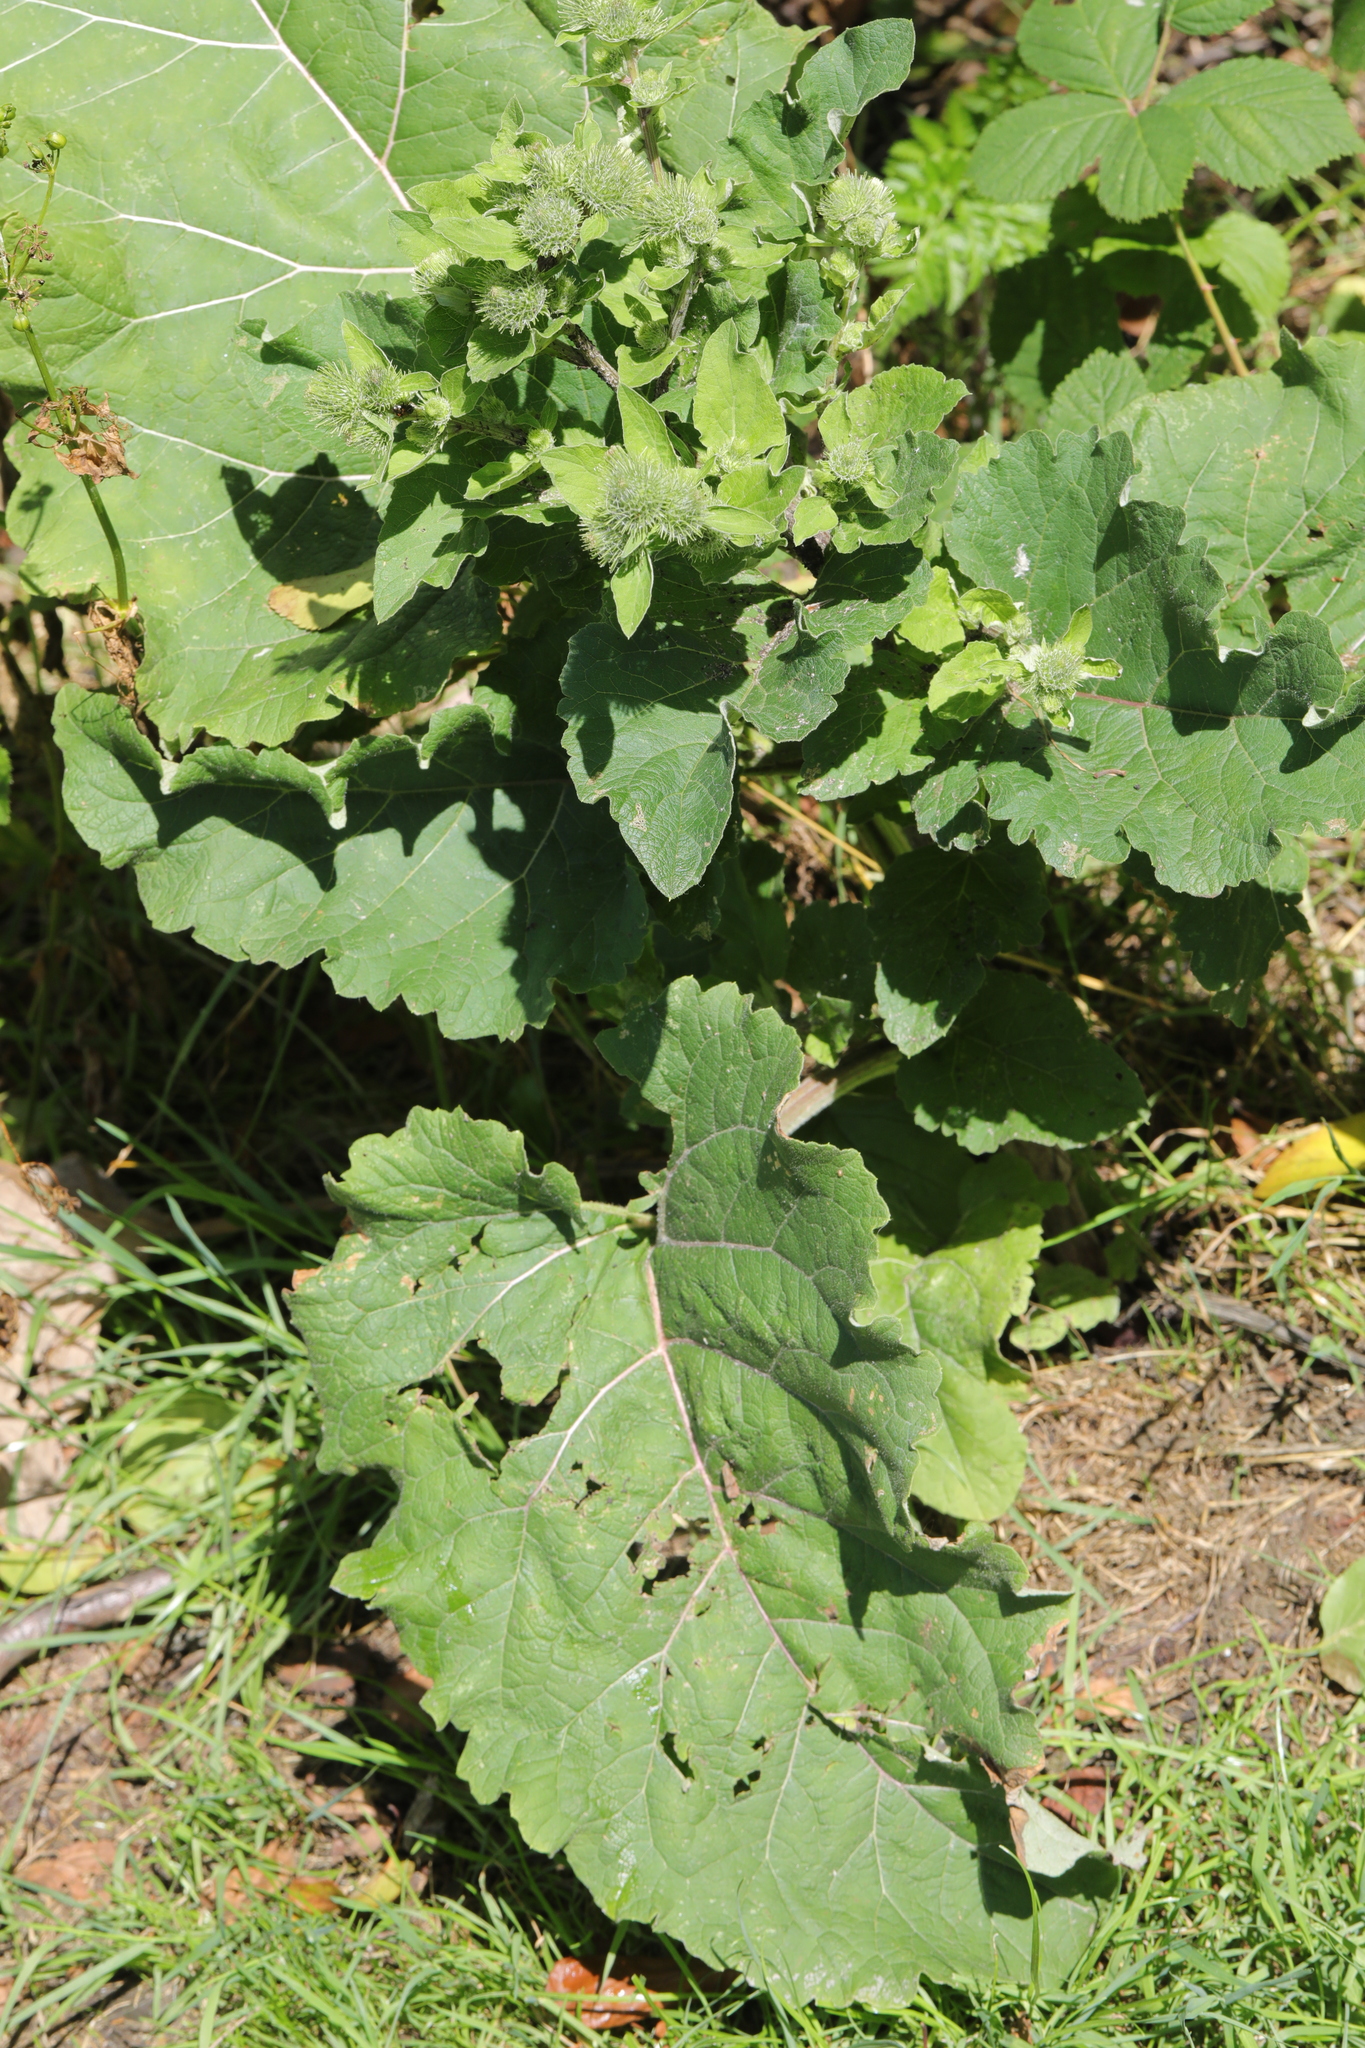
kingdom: Plantae
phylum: Tracheophyta
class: Magnoliopsida
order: Asterales
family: Asteraceae
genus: Arctium
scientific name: Arctium minus
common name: Lesser burdock
